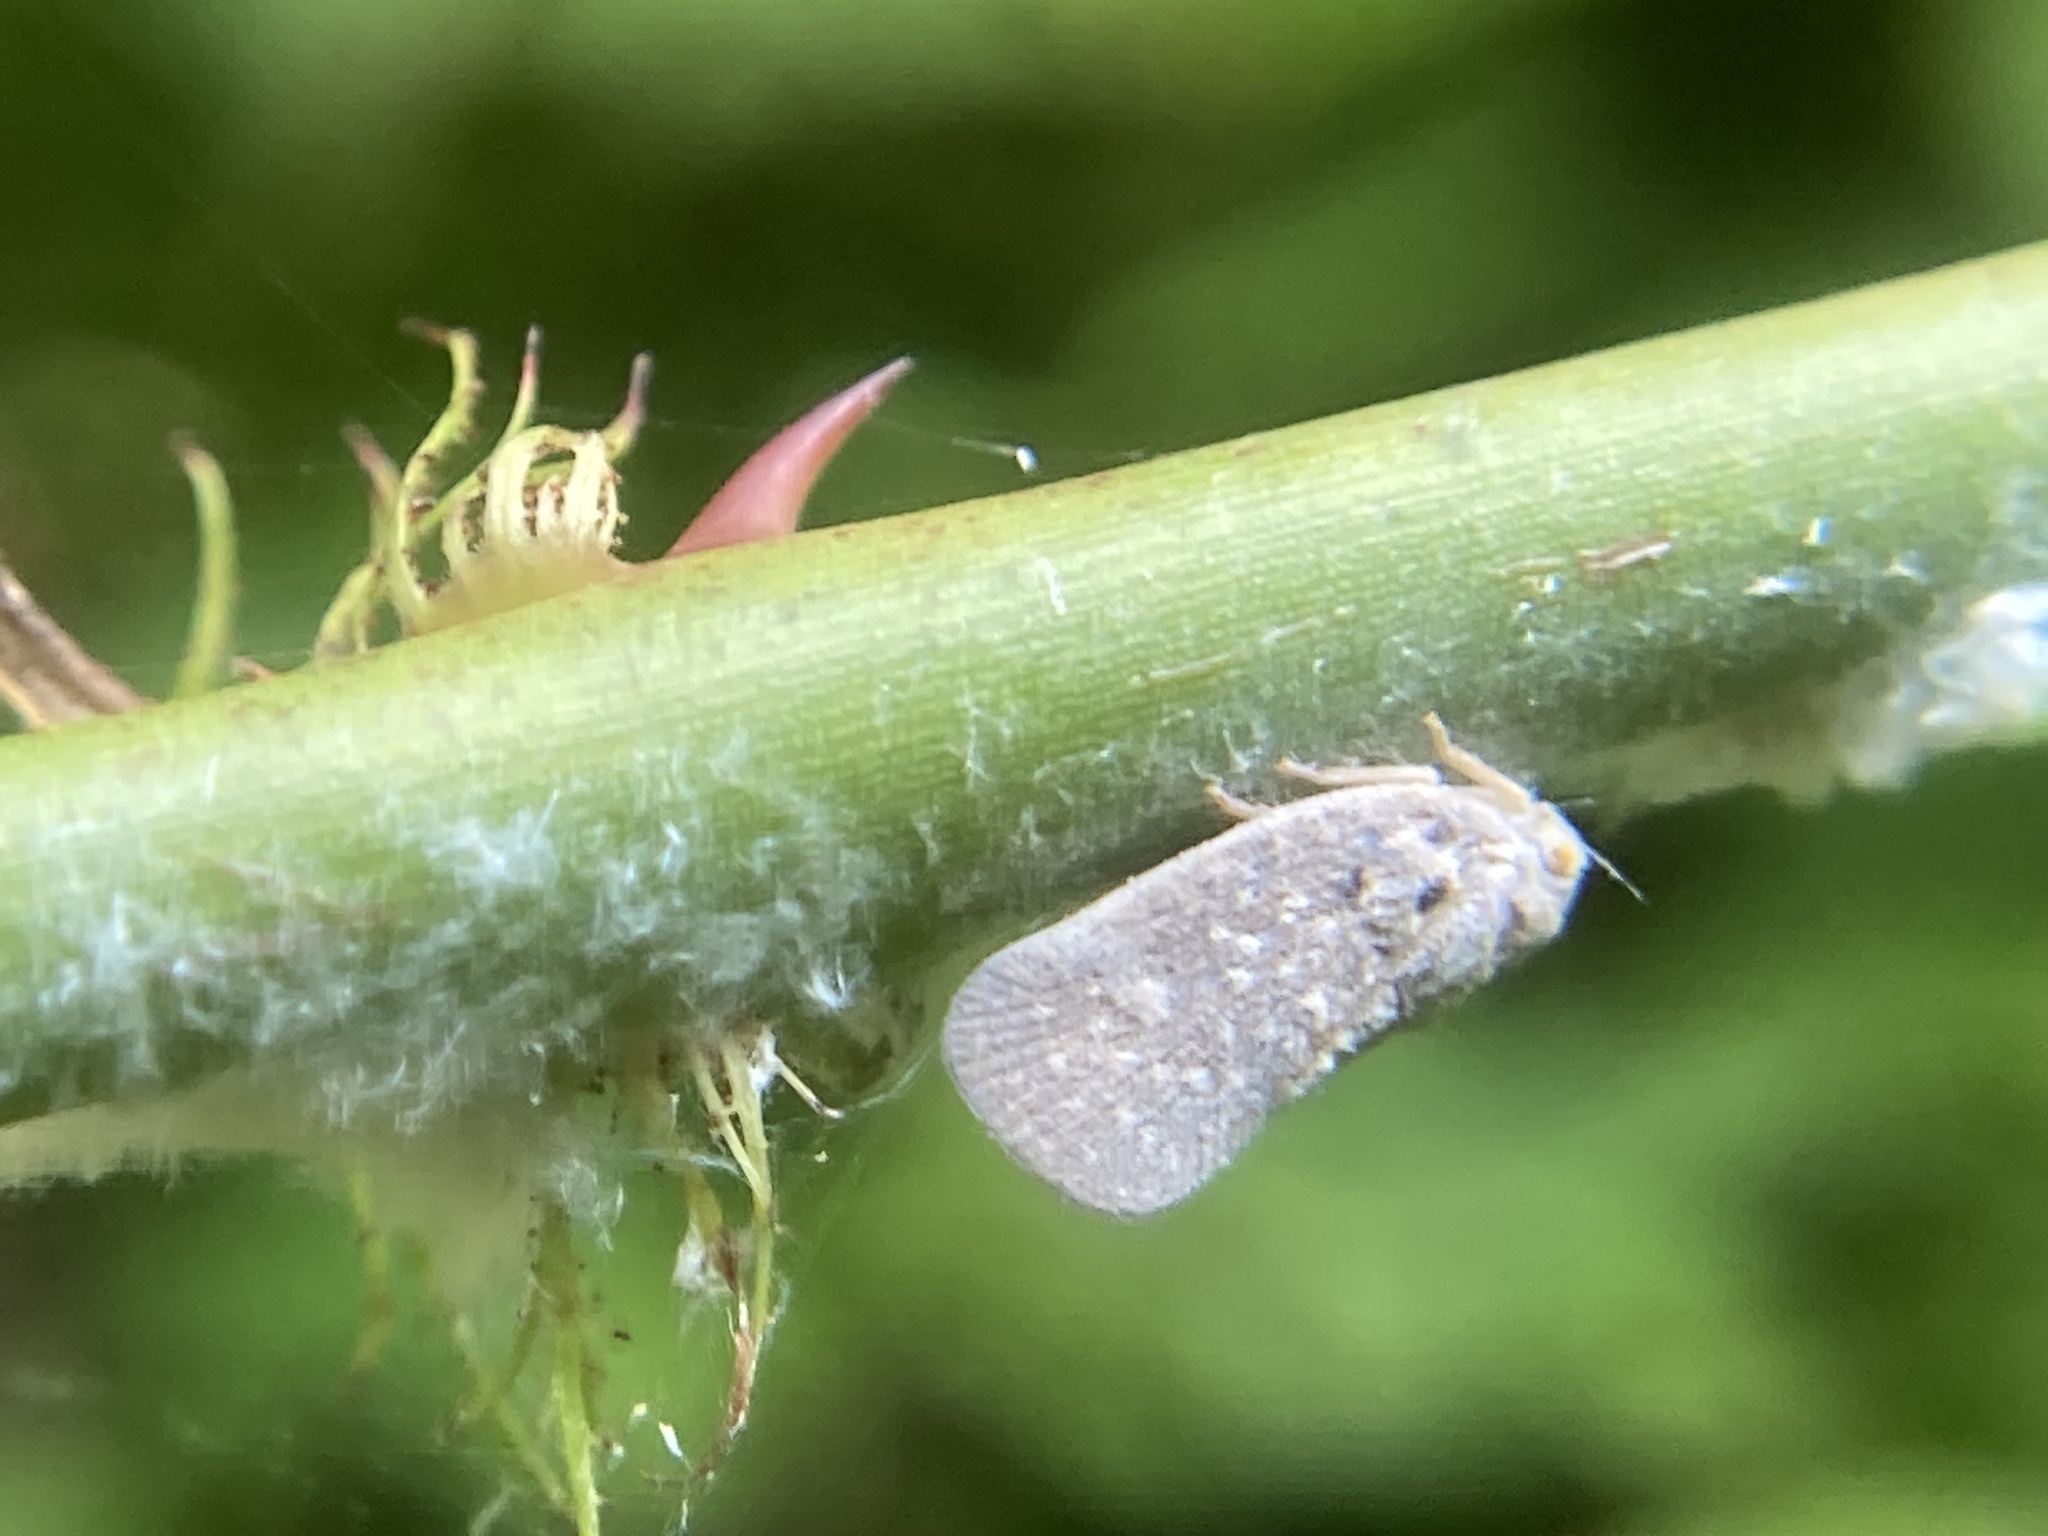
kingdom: Animalia
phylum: Arthropoda
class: Insecta
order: Hemiptera
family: Flatidae
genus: Metcalfa
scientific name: Metcalfa pruinosa
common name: Citrus flatid planthopper
